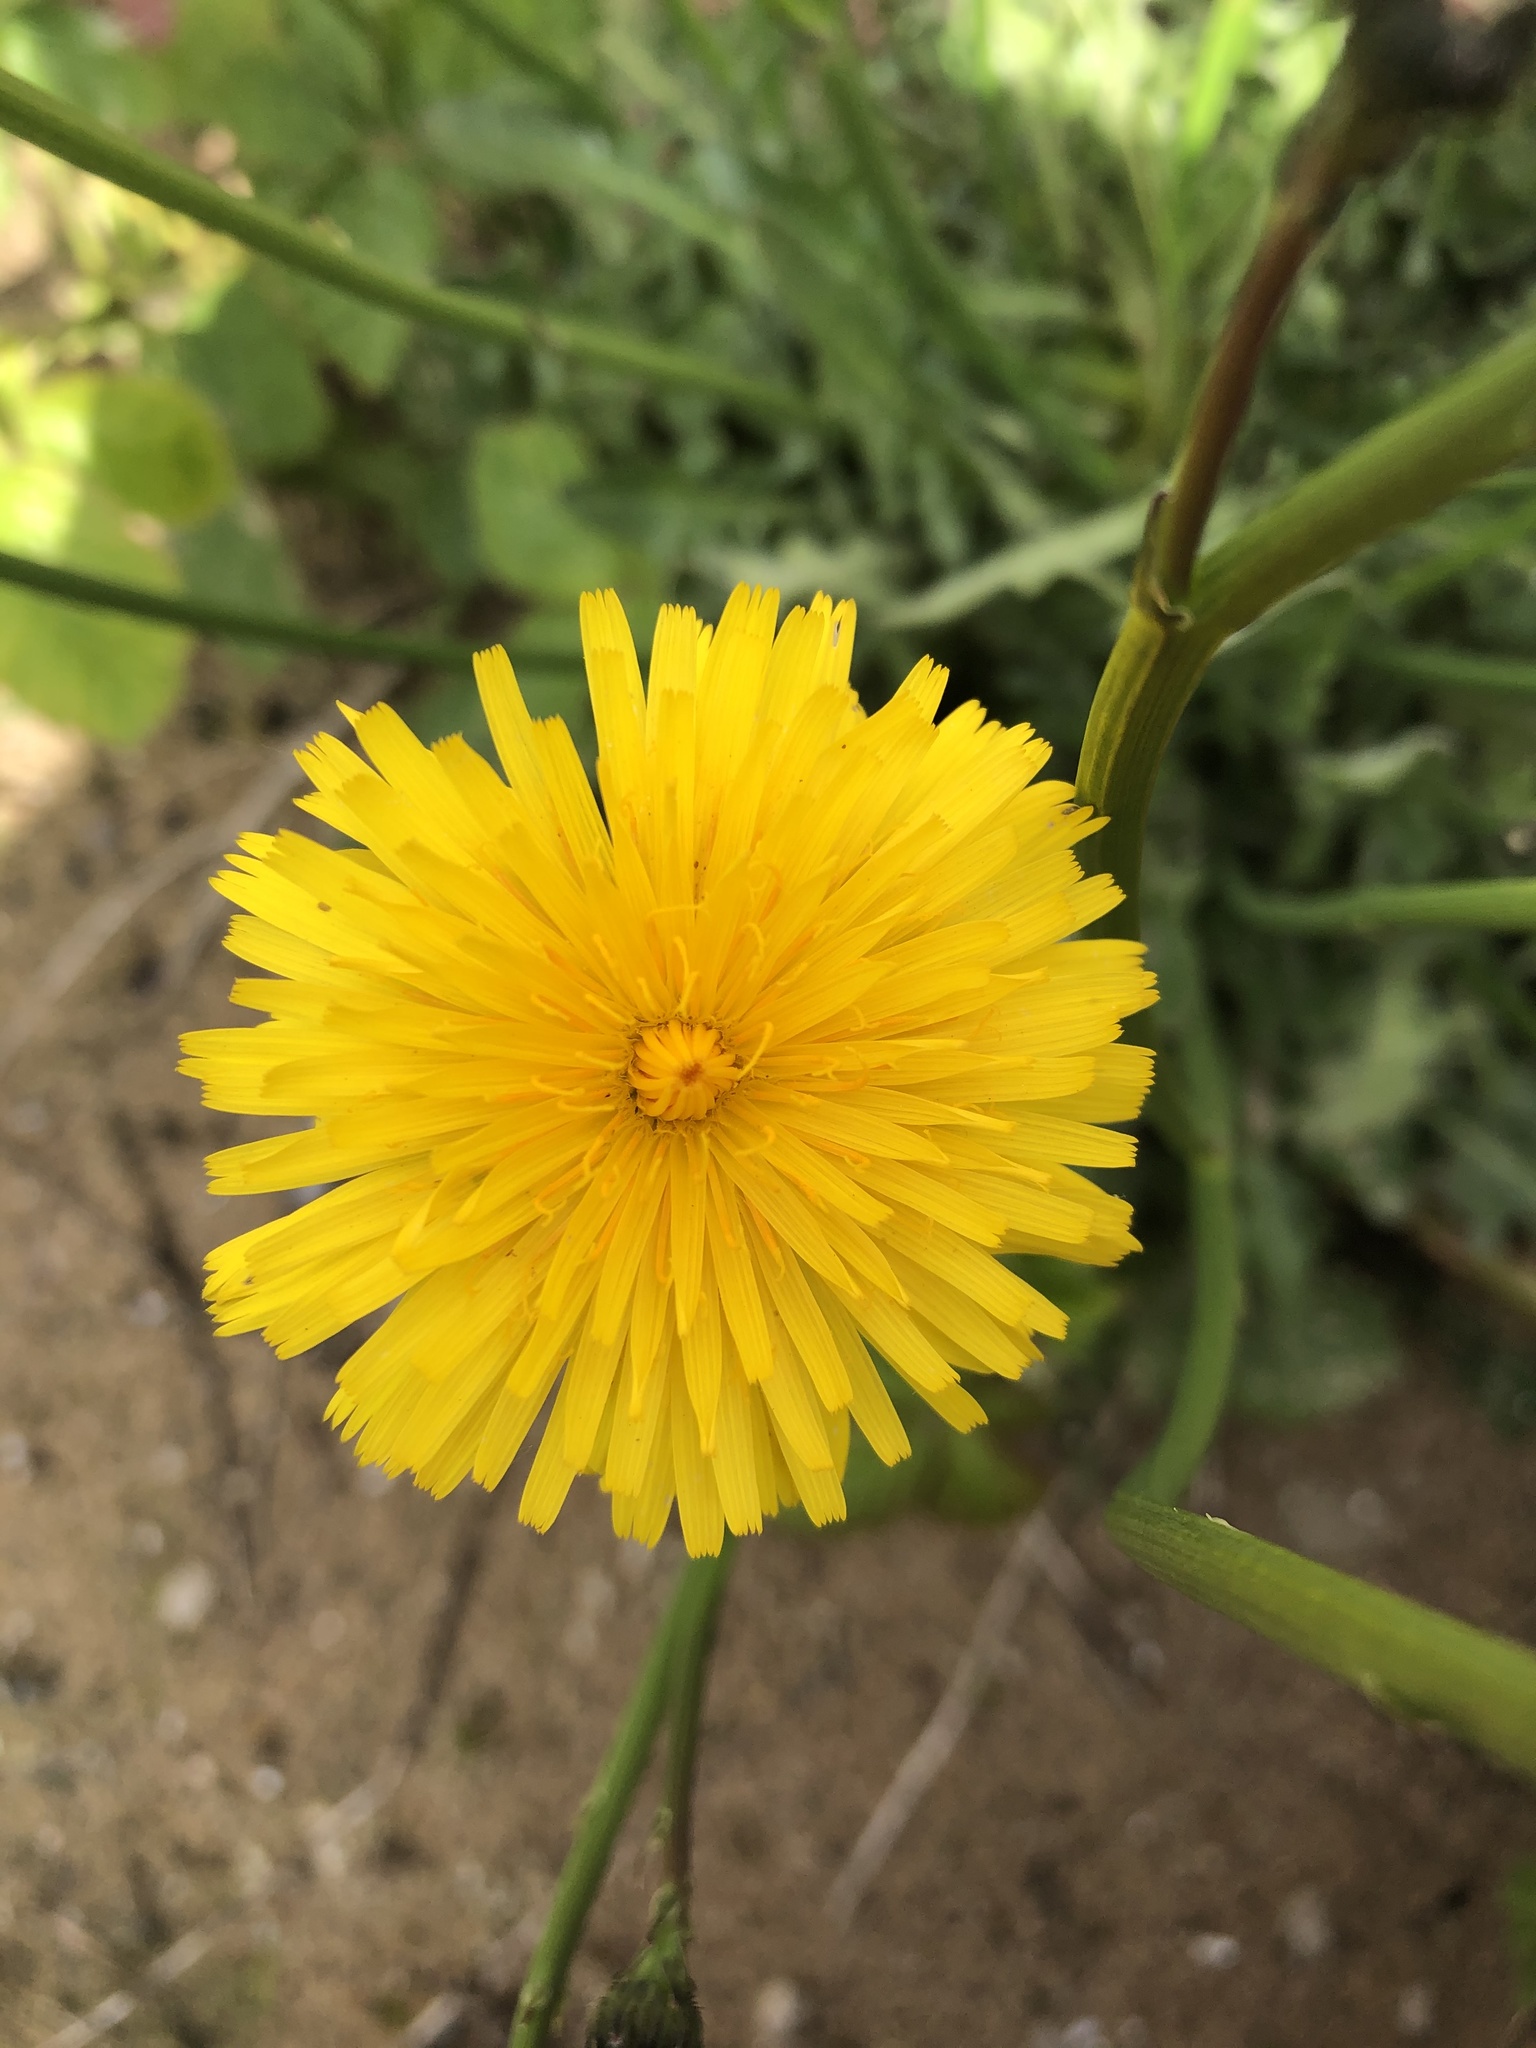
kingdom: Plantae
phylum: Tracheophyta
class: Magnoliopsida
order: Asterales
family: Asteraceae
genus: Hypochaeris
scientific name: Hypochaeris radicata
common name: Flatweed
